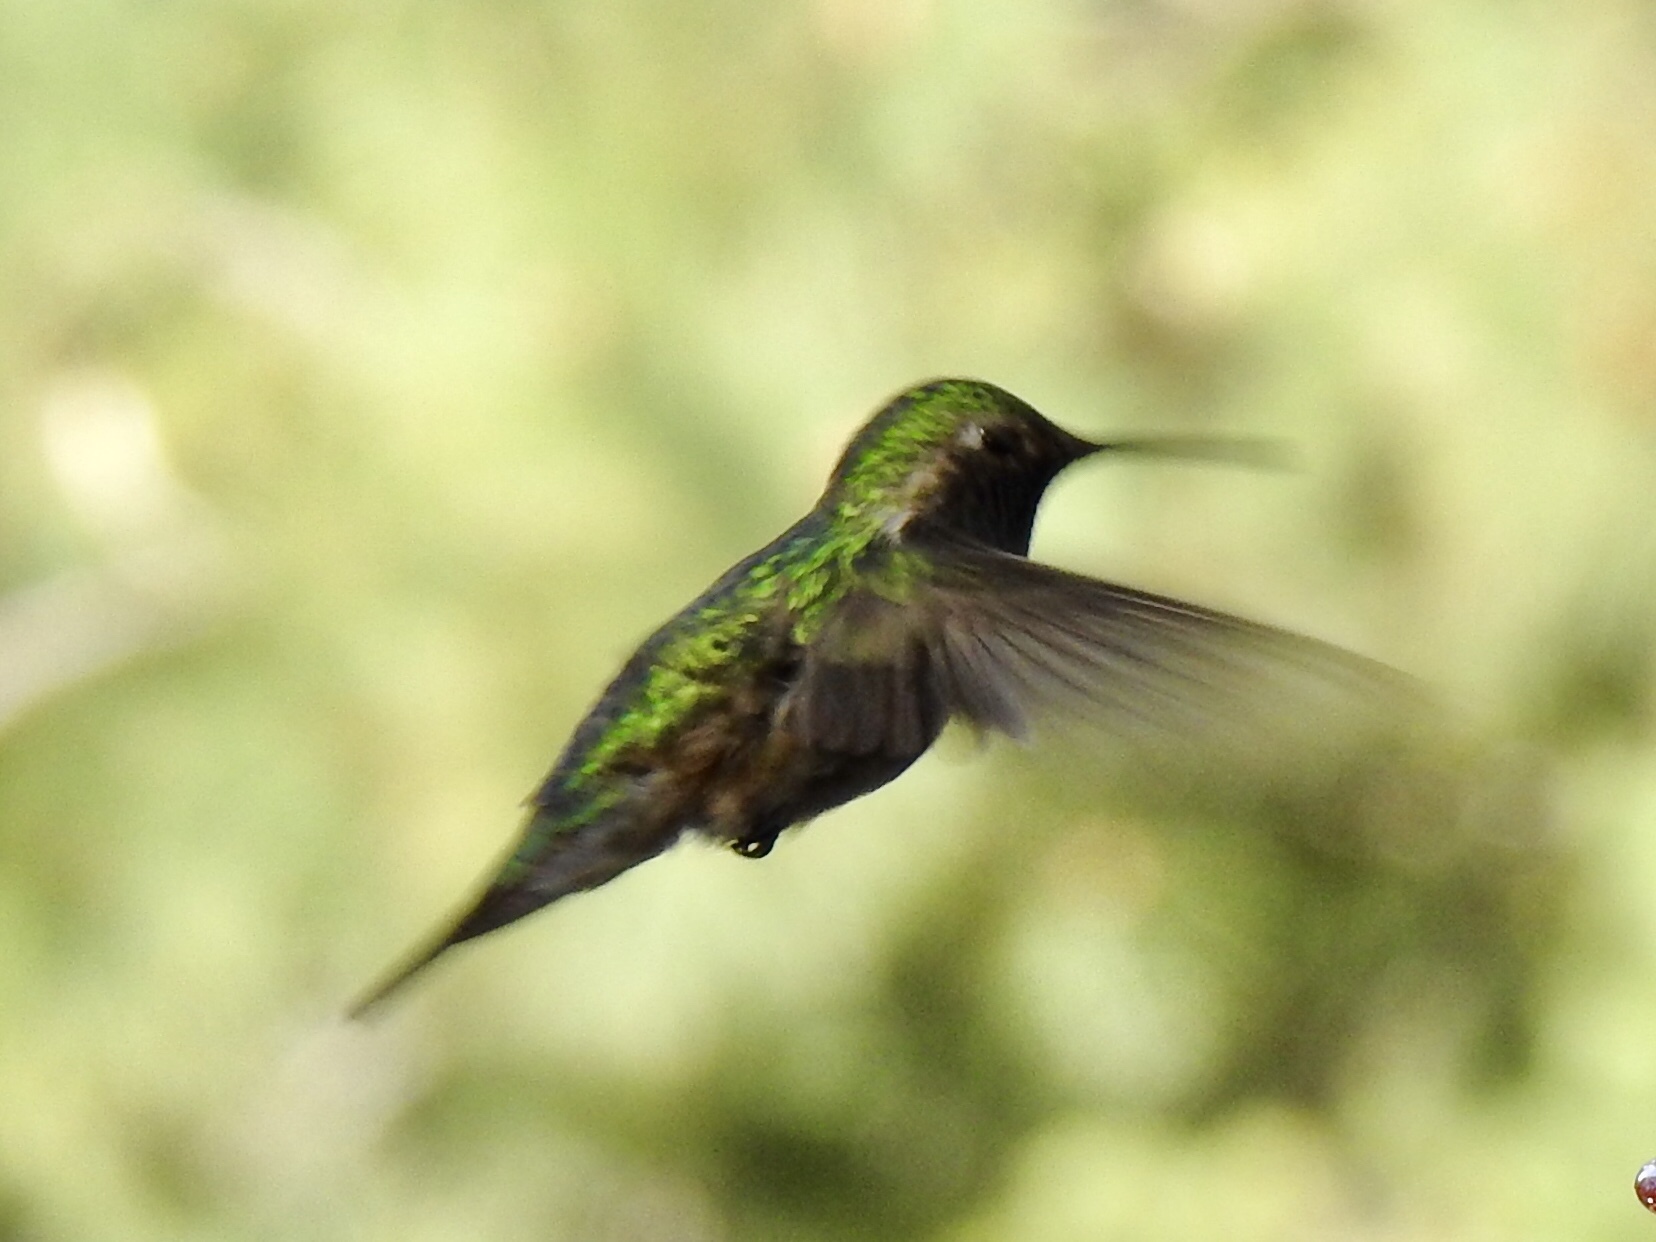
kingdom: Animalia
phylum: Chordata
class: Aves
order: Apodiformes
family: Trochilidae
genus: Selasphorus
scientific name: Selasphorus platycercus
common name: Broad-tailed hummingbird
